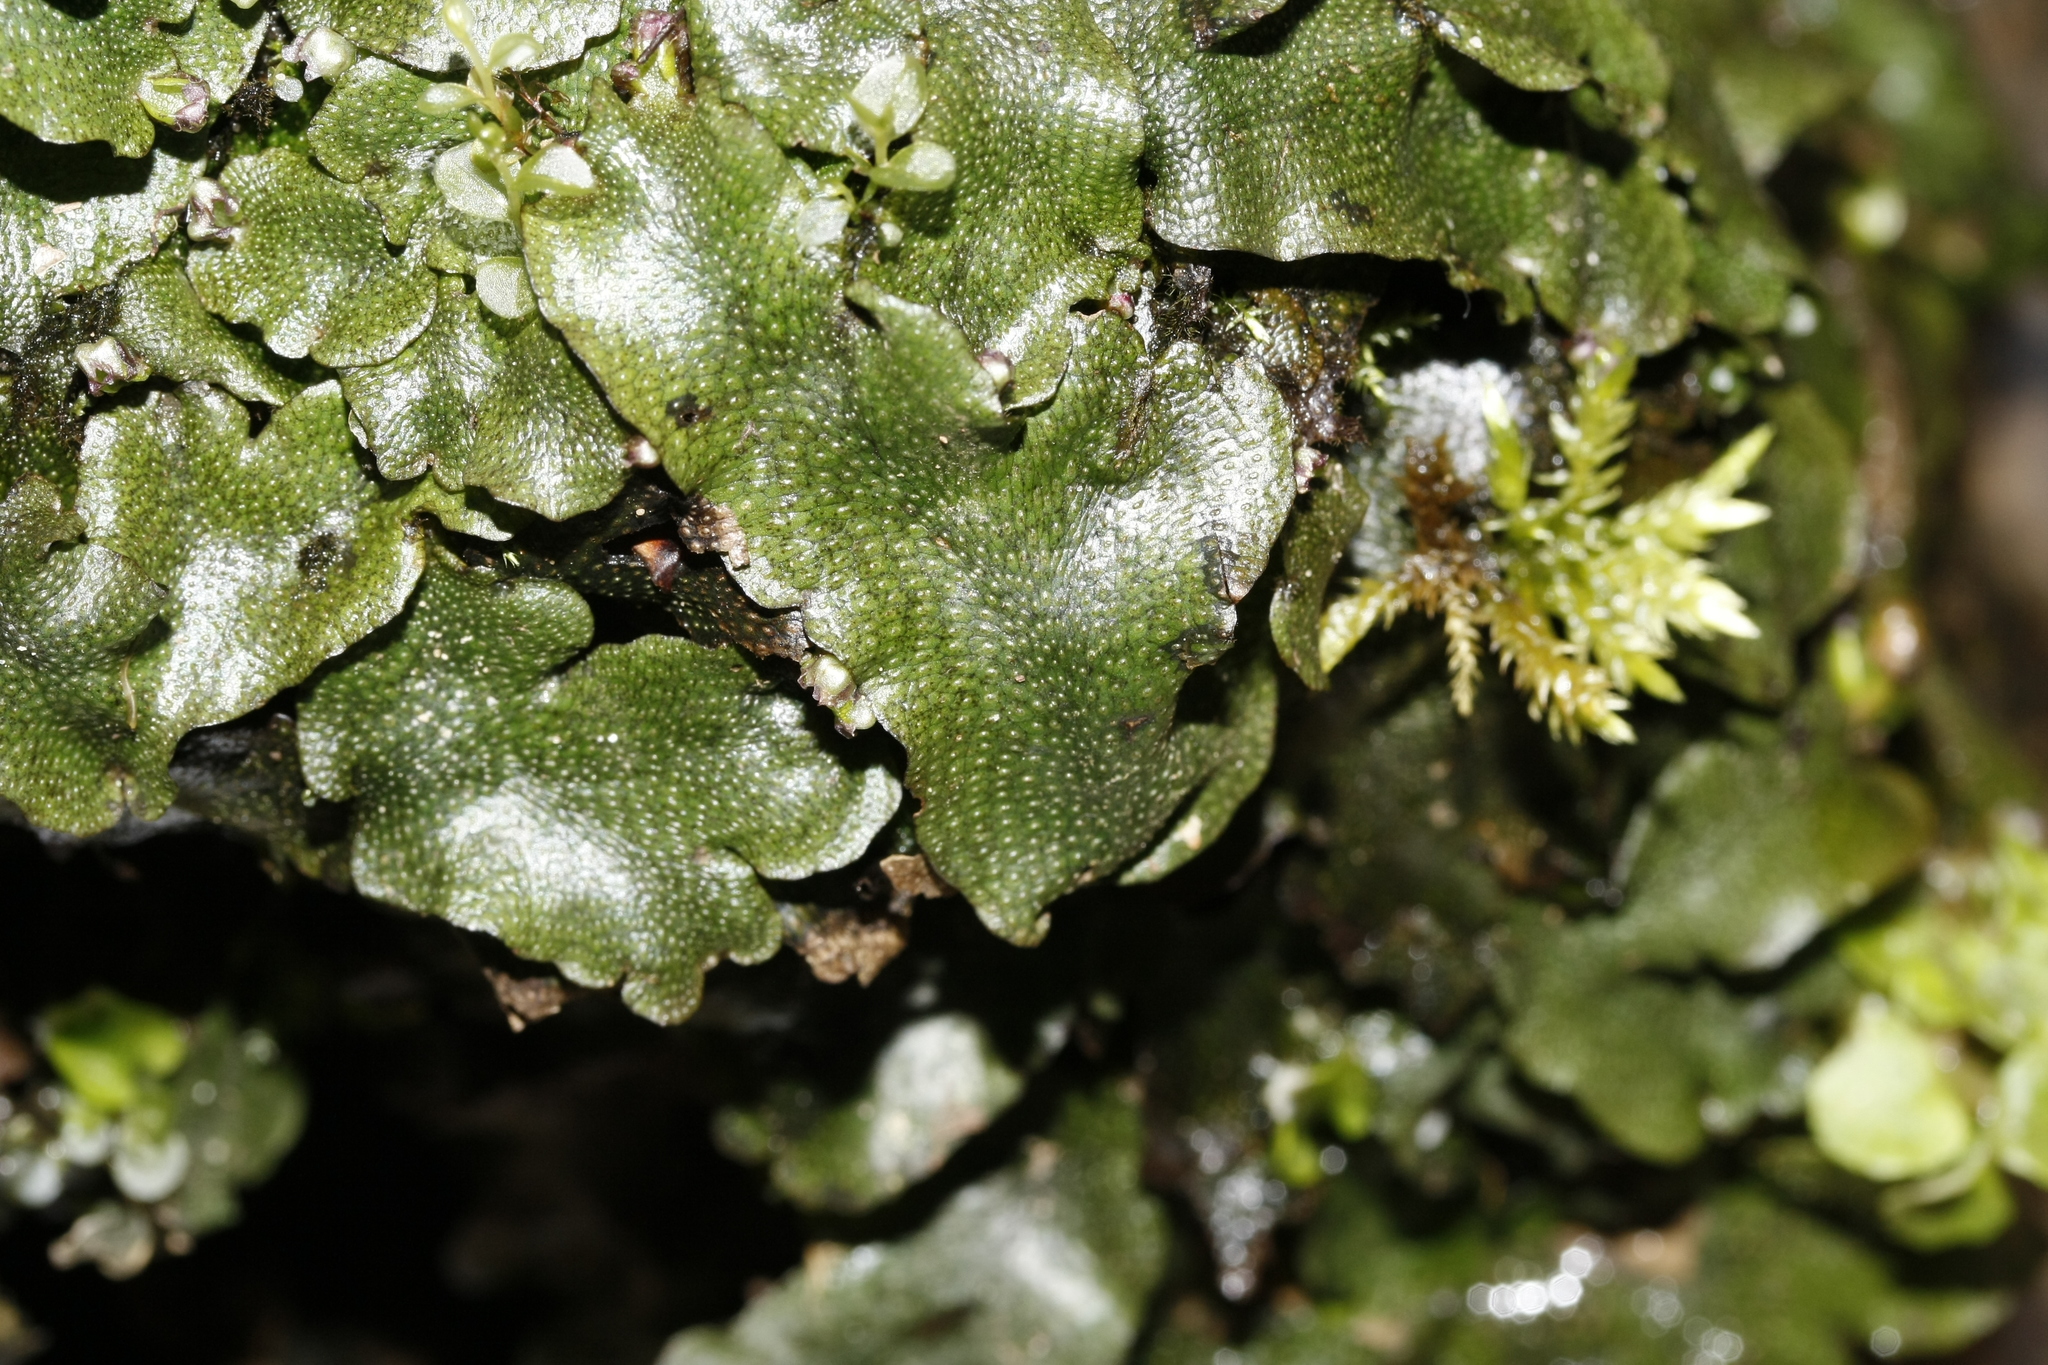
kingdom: Plantae
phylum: Marchantiophyta
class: Marchantiopsida
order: Marchantiales
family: Conocephalaceae
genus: Conocephalum
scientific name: Conocephalum conicum
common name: Great scented liverwort
